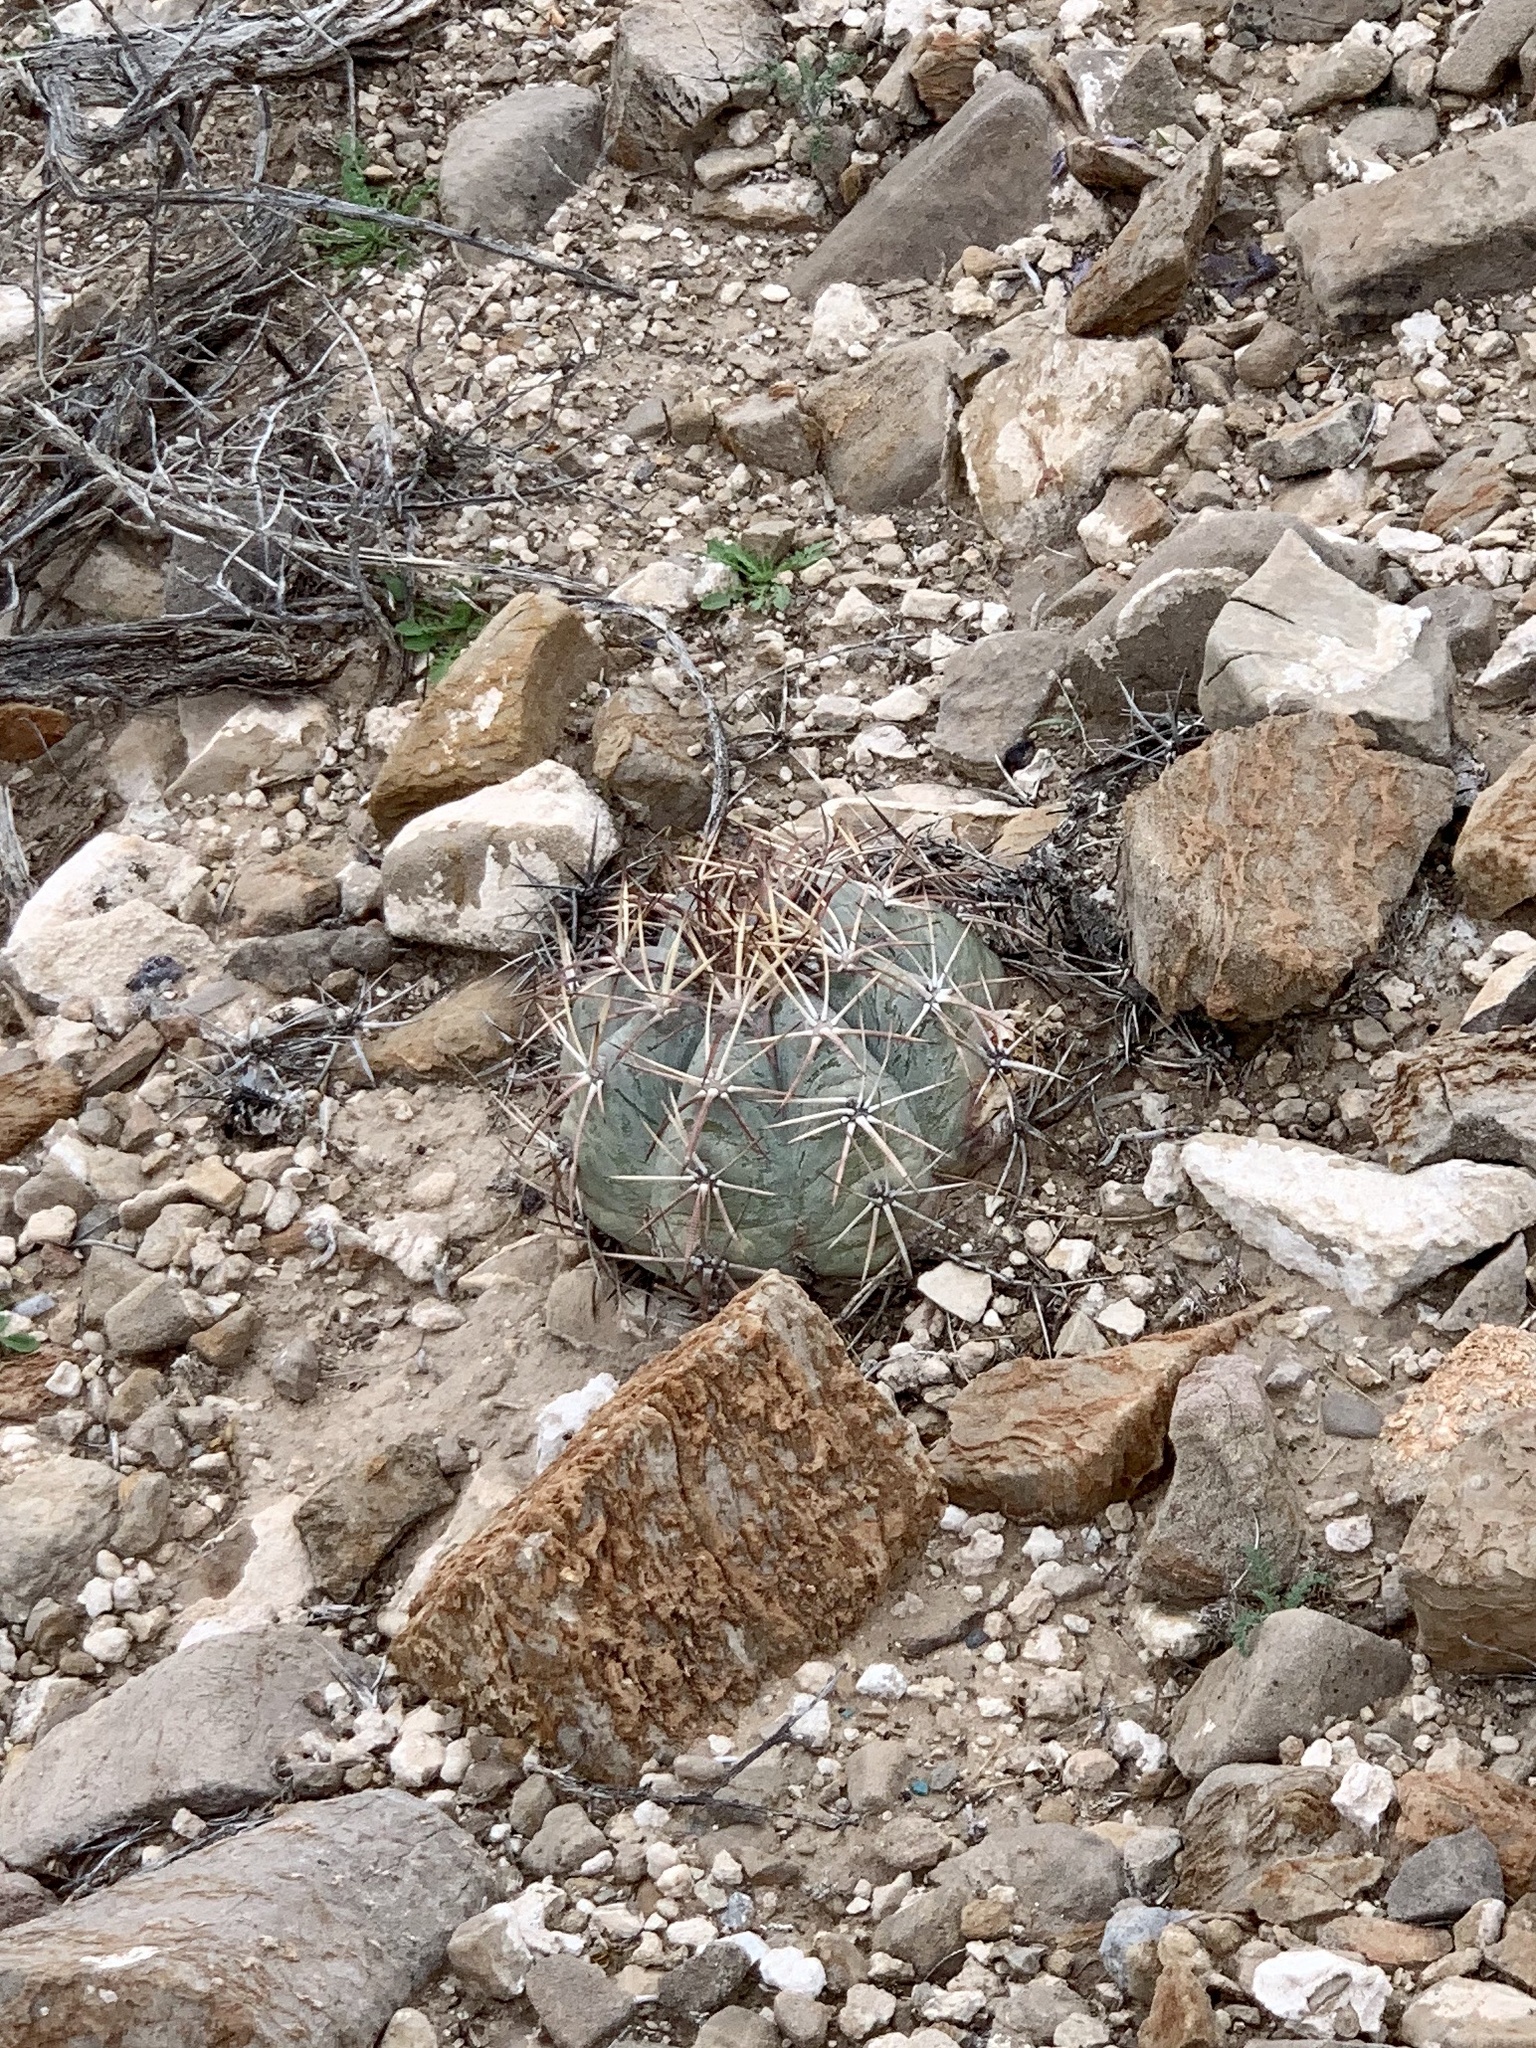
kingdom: Plantae
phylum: Tracheophyta
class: Magnoliopsida
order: Caryophyllales
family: Cactaceae
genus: Echinocactus
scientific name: Echinocactus horizonthalonius
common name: Devilshead
